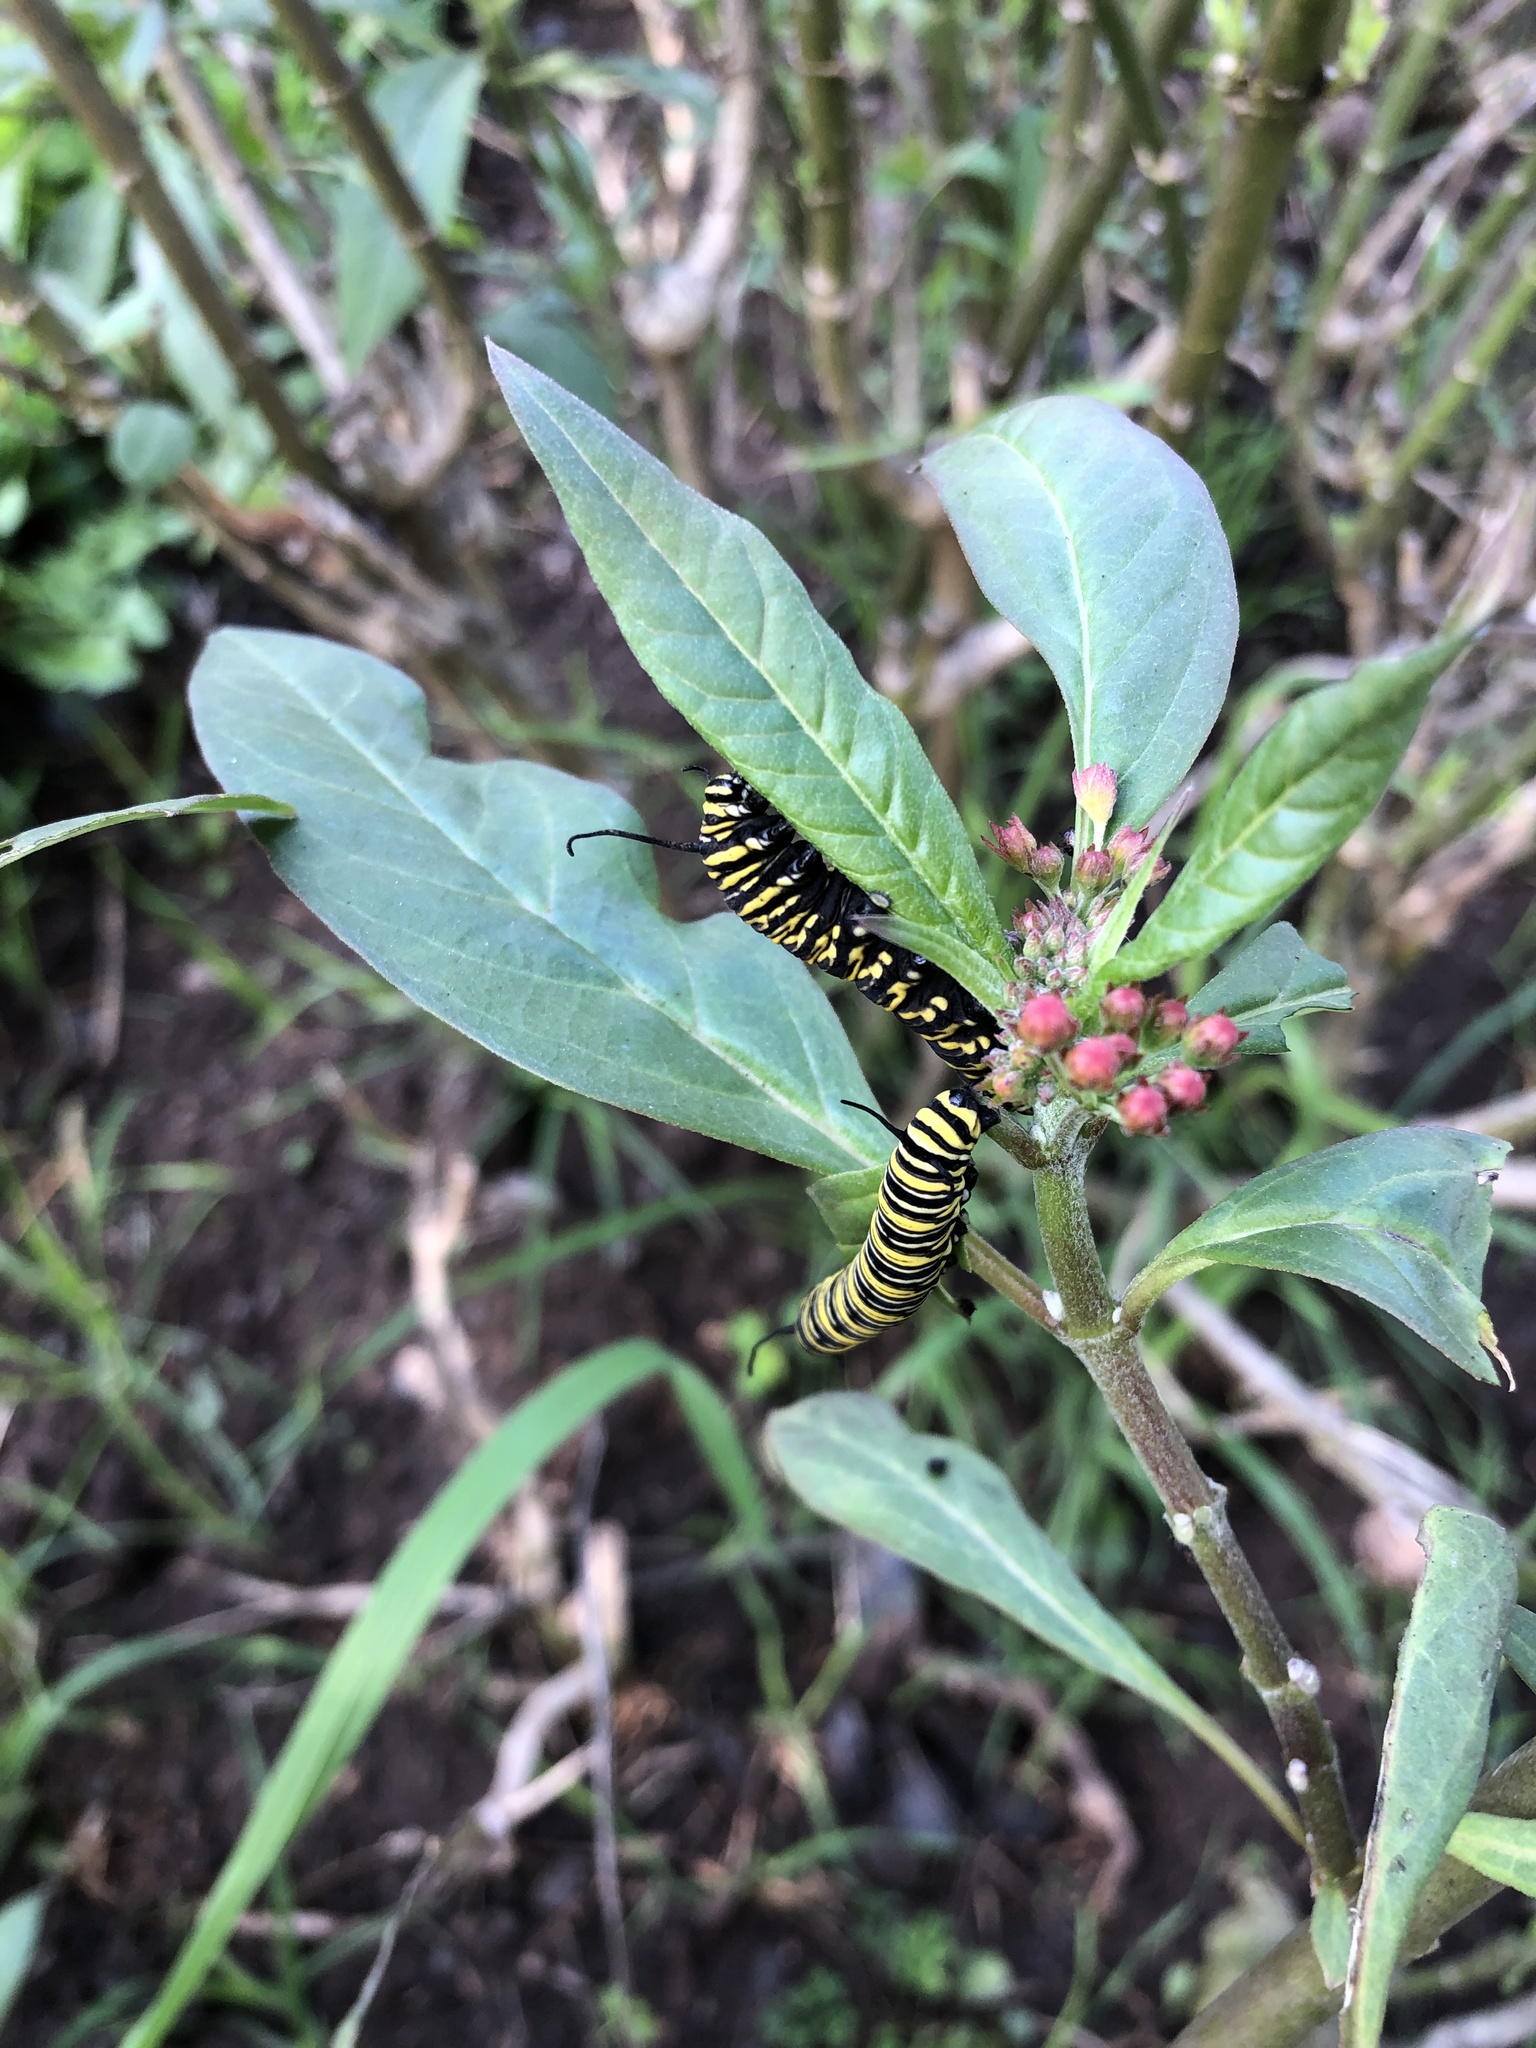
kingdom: Animalia
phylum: Arthropoda
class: Insecta
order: Lepidoptera
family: Nymphalidae
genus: Danaus
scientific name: Danaus plexippus
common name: Monarch
